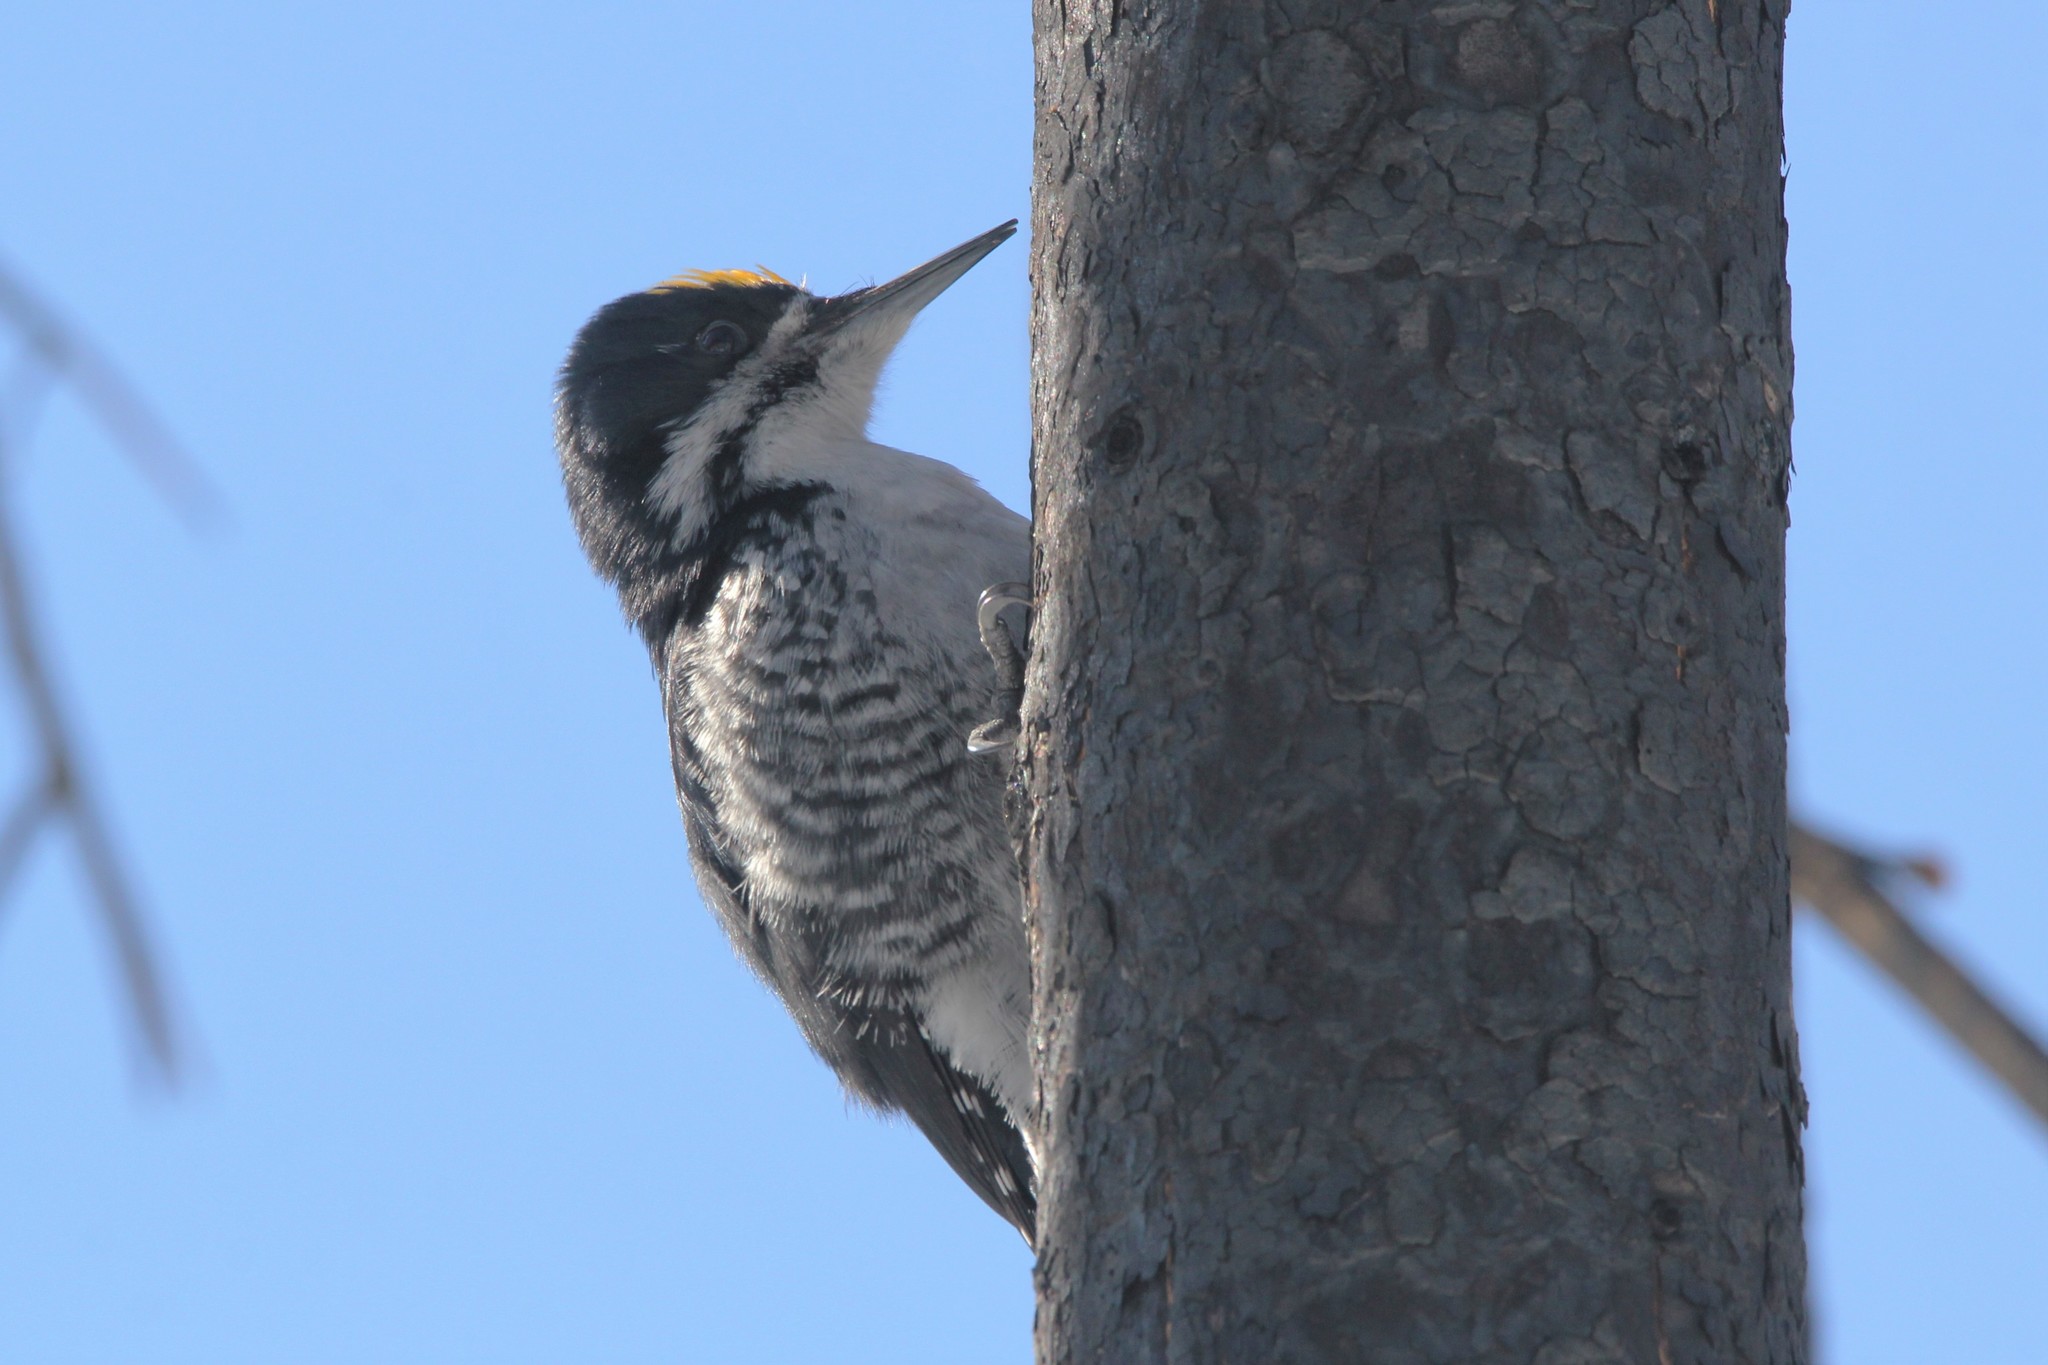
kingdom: Animalia
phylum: Chordata
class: Aves
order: Piciformes
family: Picidae
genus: Picoides
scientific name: Picoides arcticus
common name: Black-backed woodpecker
